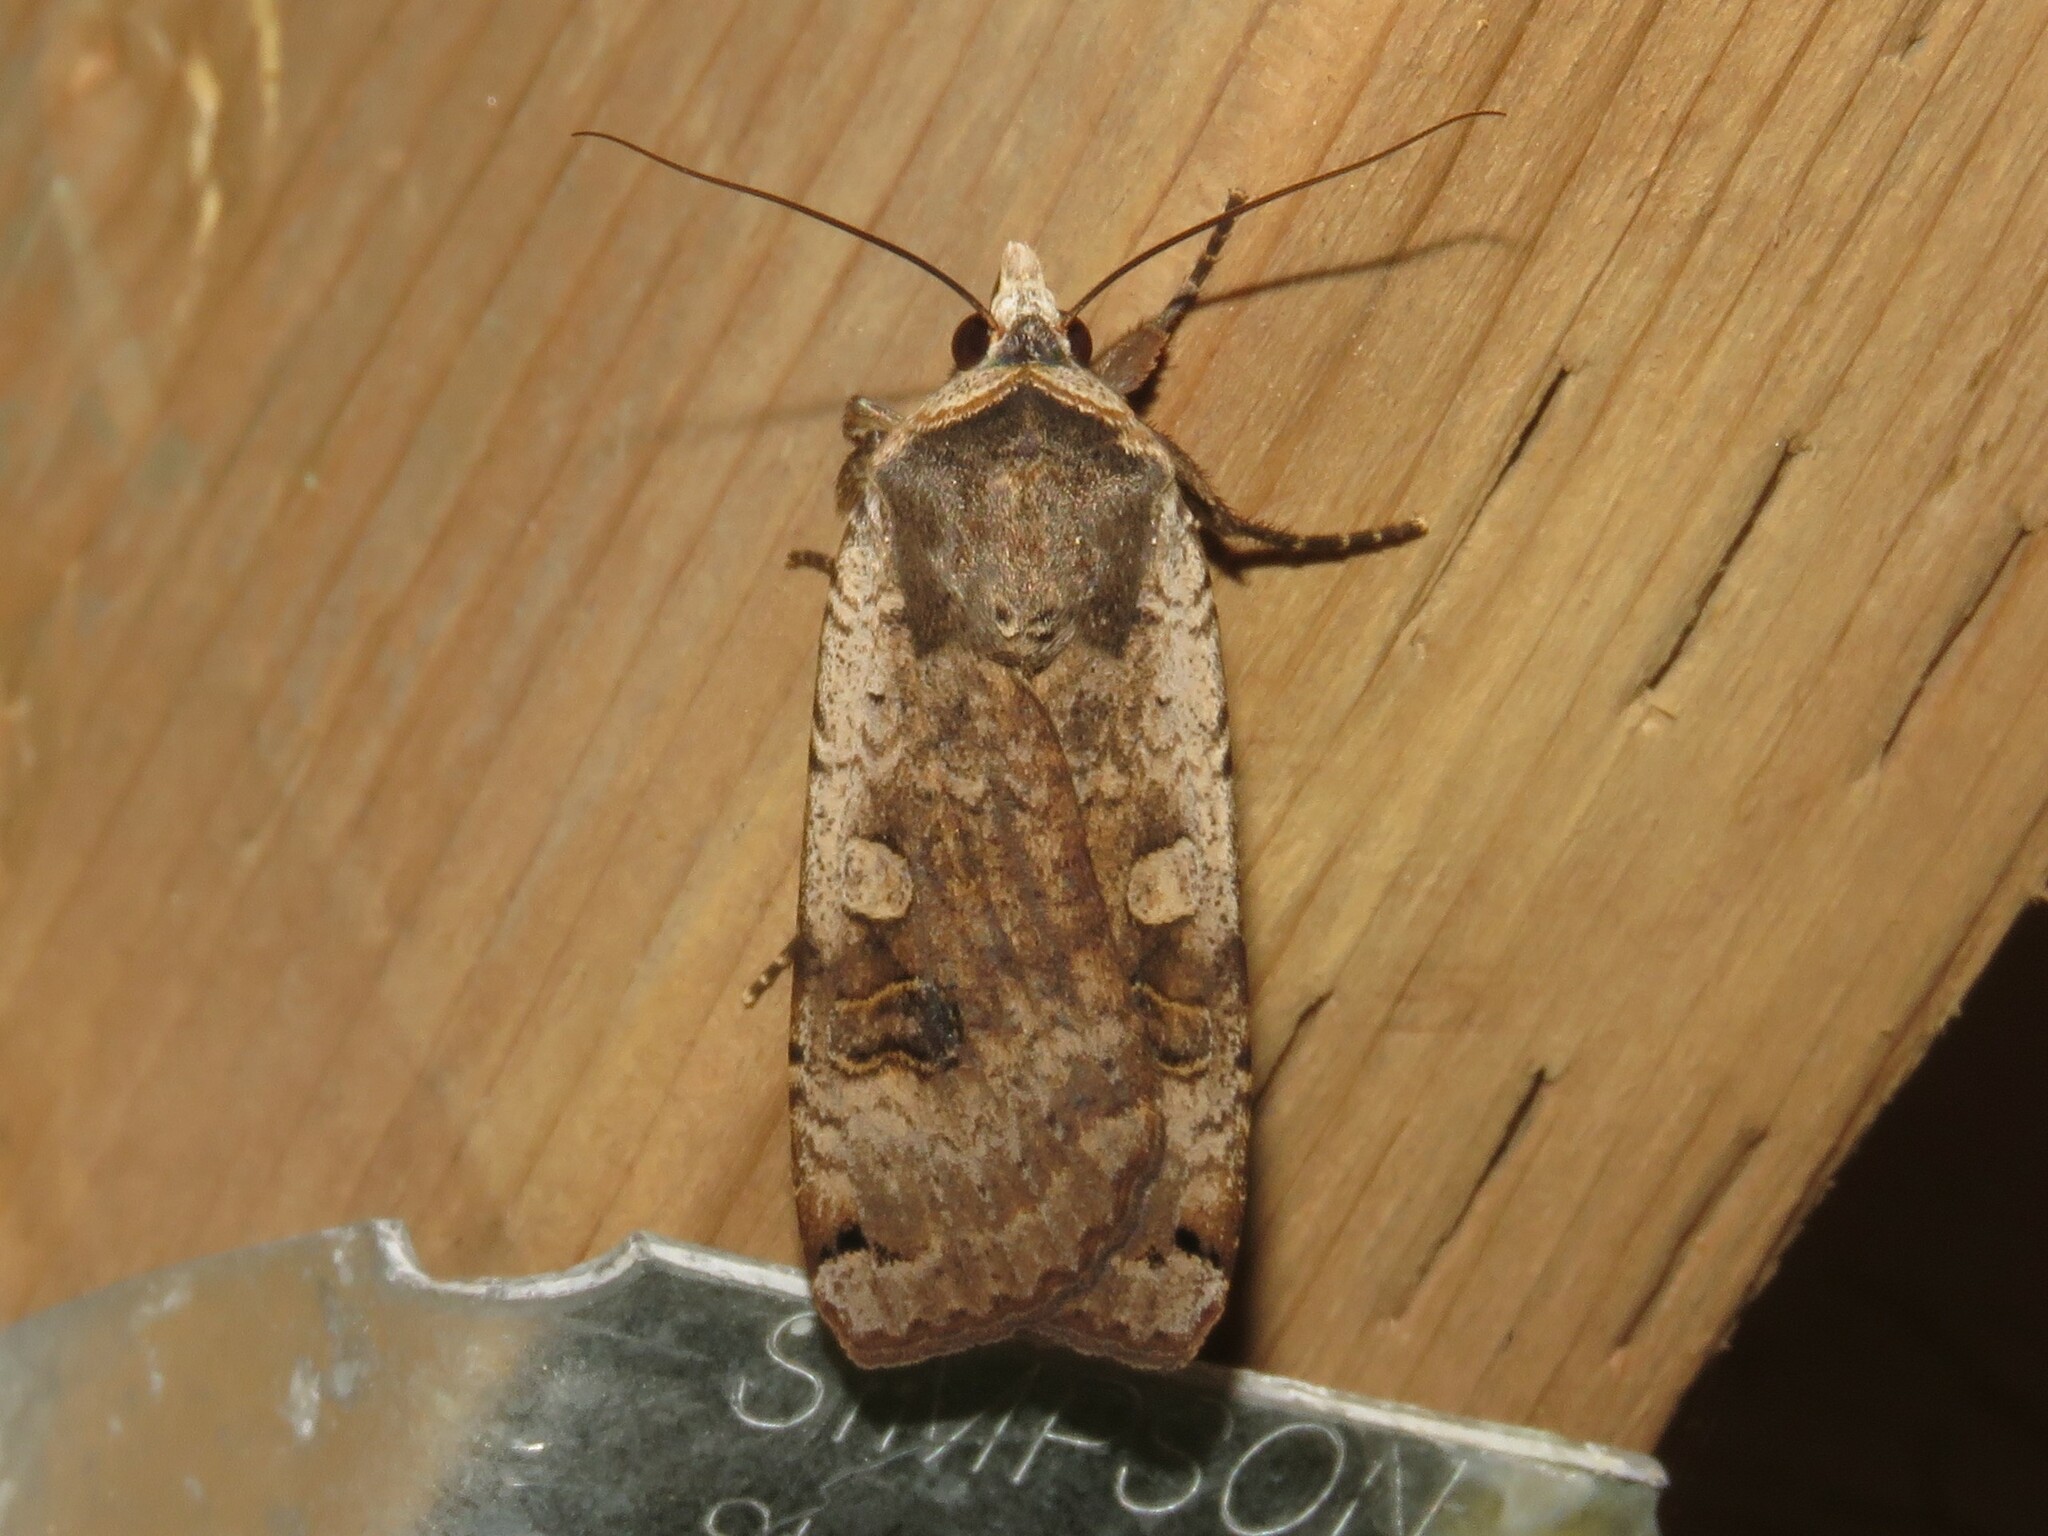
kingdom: Animalia
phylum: Arthropoda
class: Insecta
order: Lepidoptera
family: Noctuidae
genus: Noctua
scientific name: Noctua pronuba
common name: Large yellow underwing
